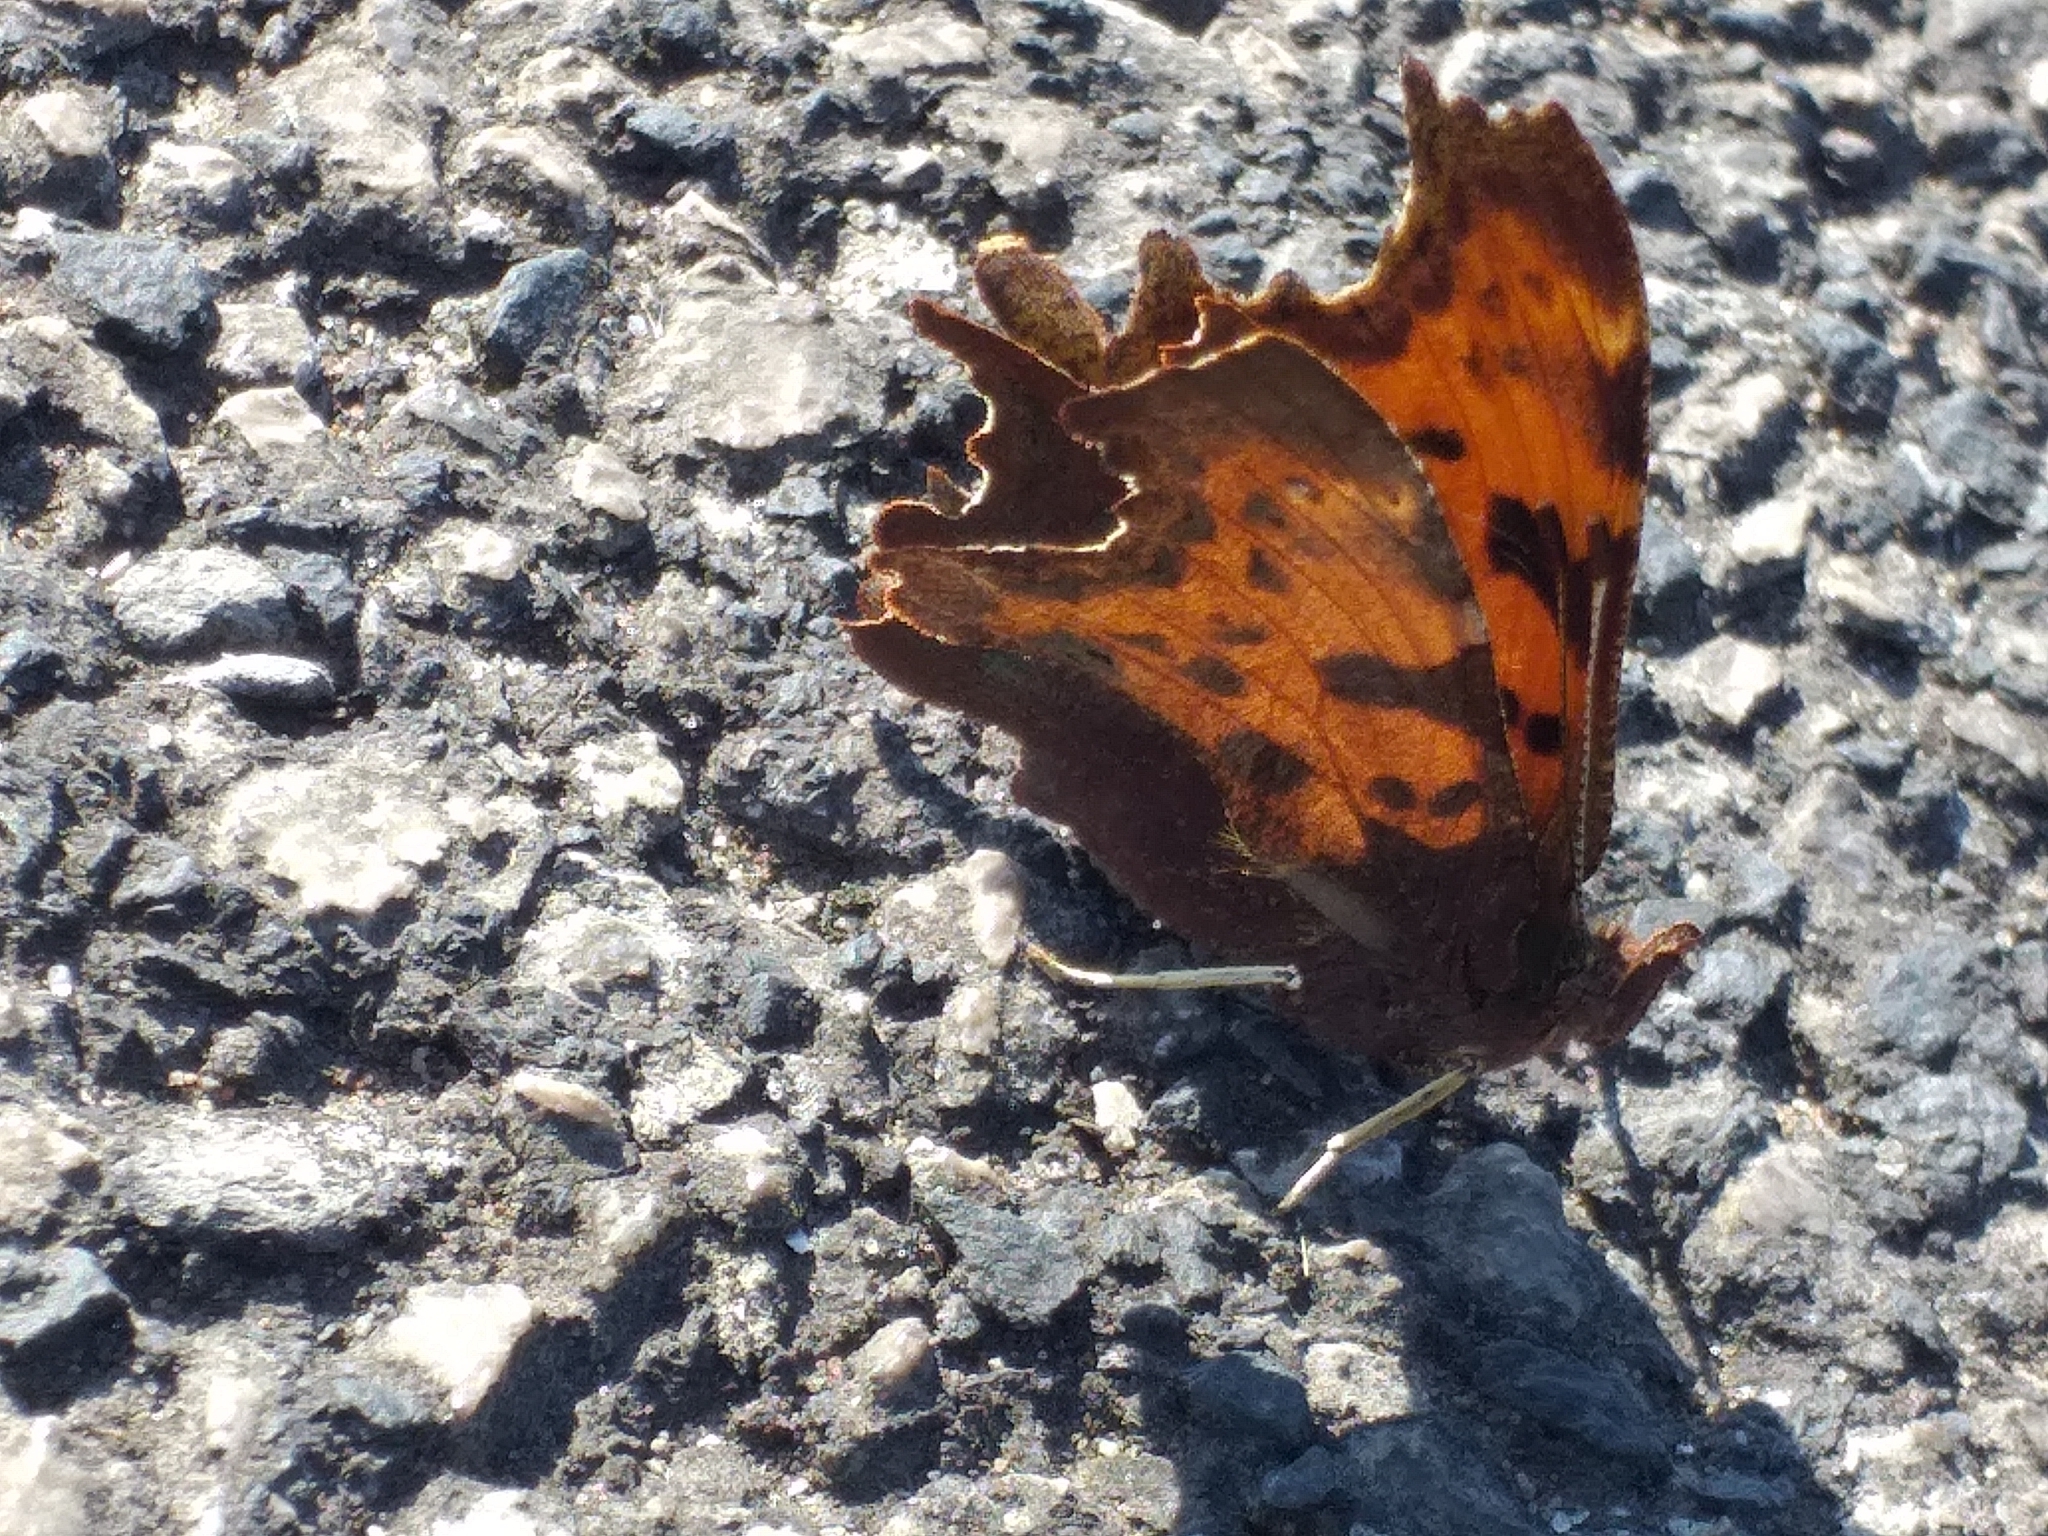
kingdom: Animalia
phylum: Arthropoda
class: Insecta
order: Lepidoptera
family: Nymphalidae
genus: Polygonia
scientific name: Polygonia c-album
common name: Comma
